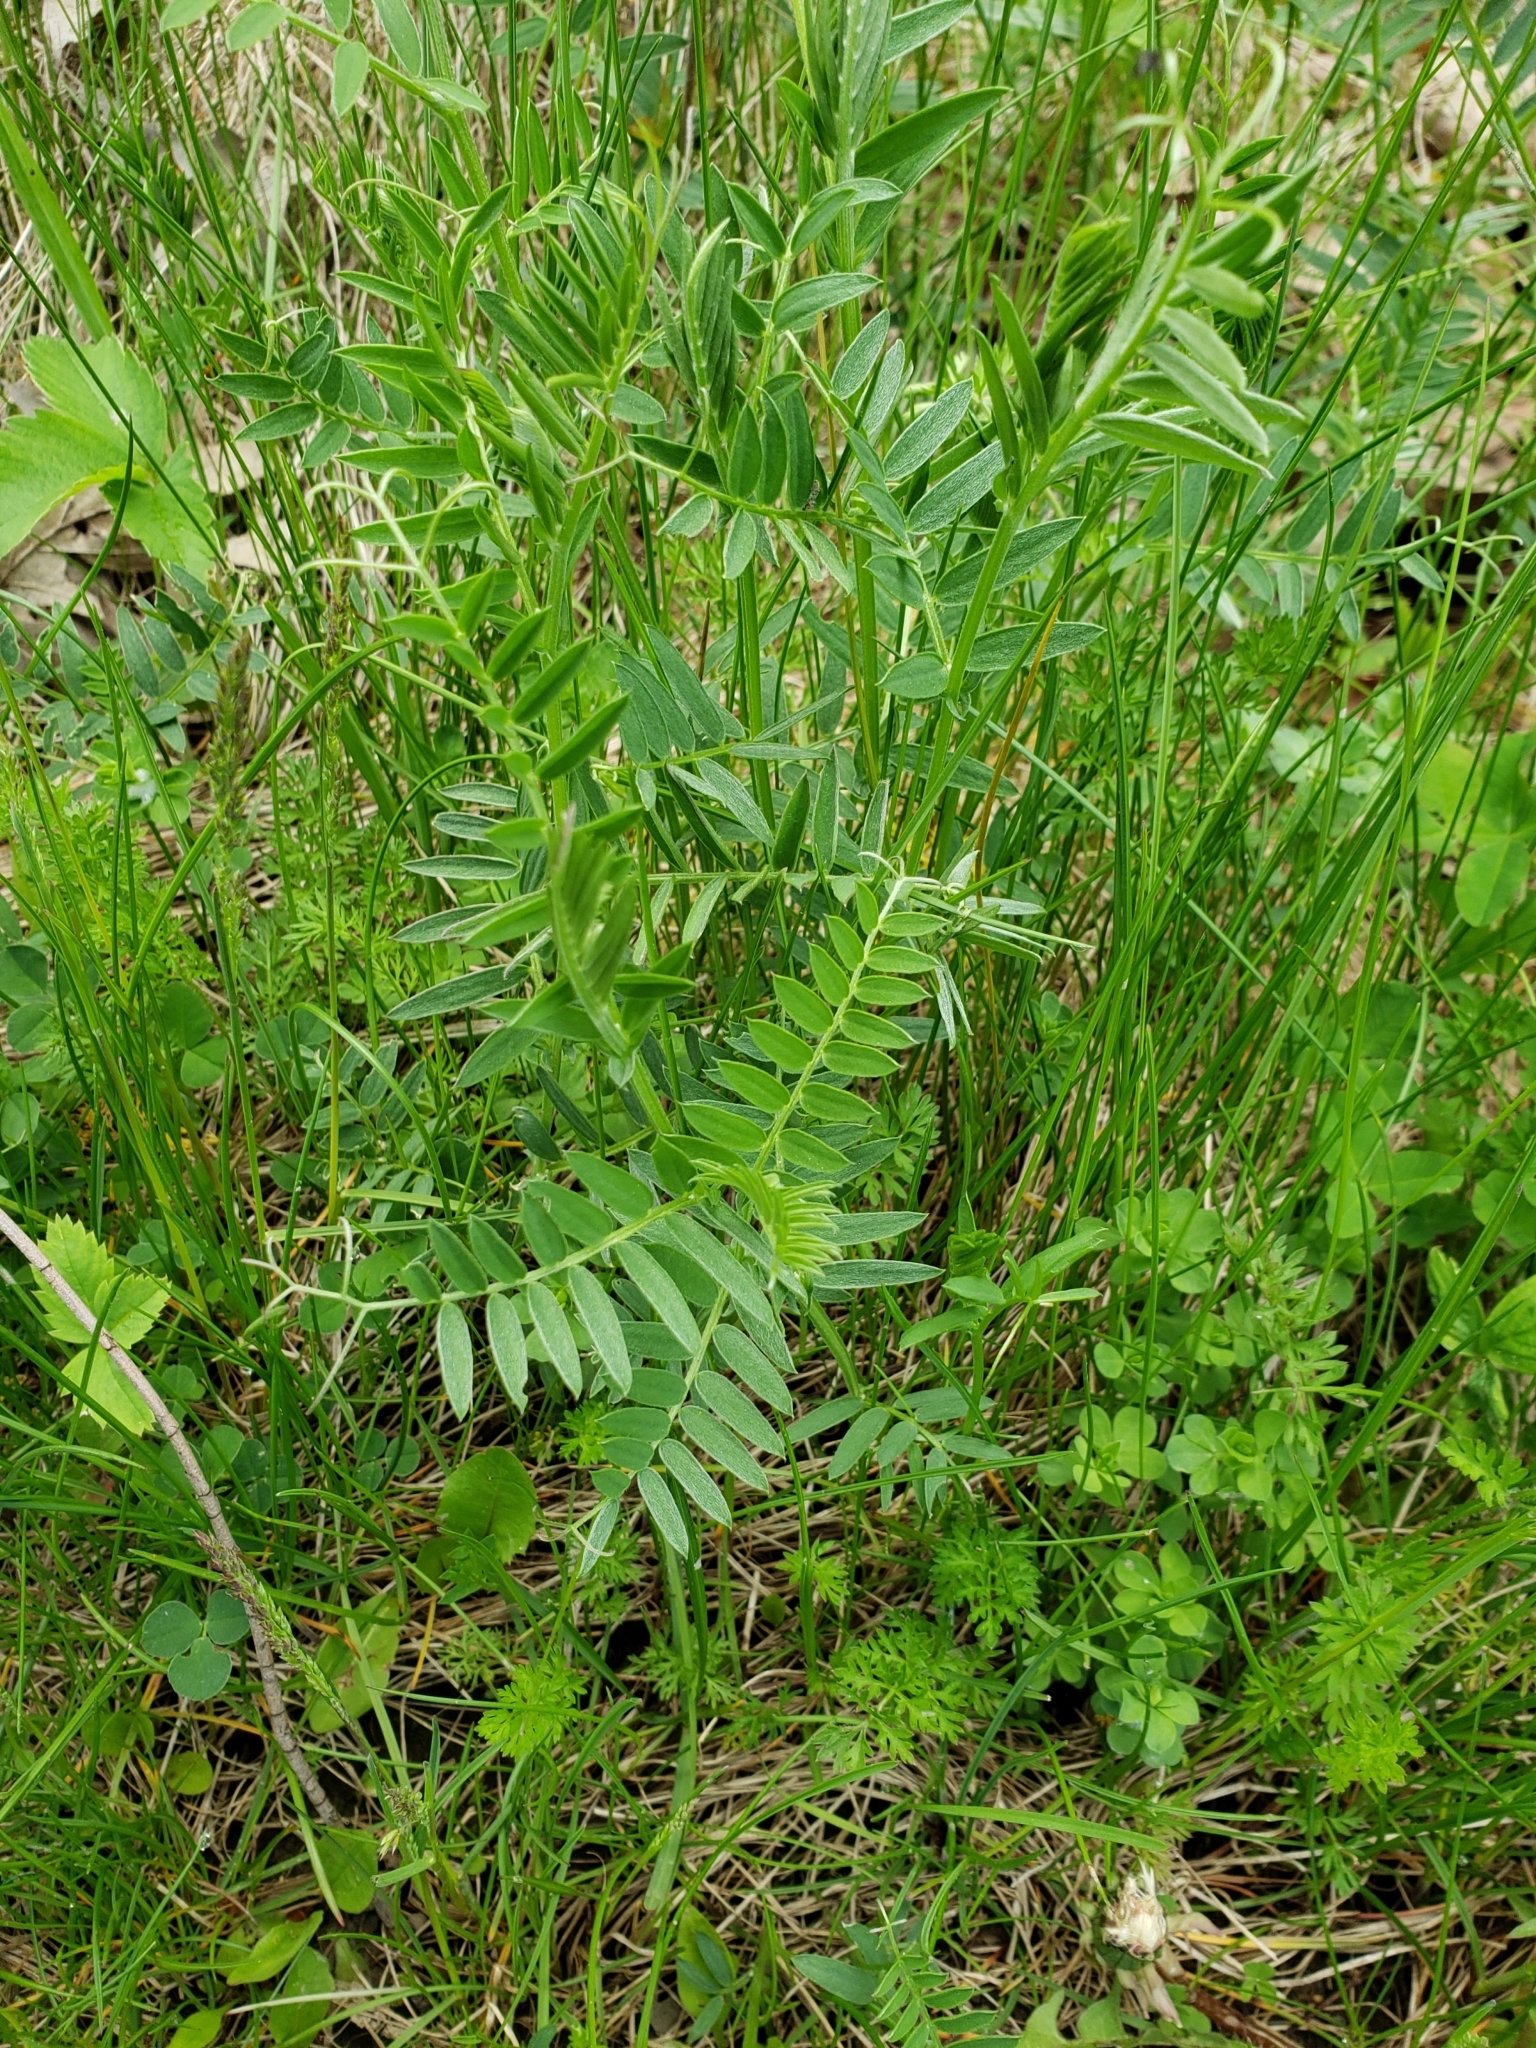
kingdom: Plantae
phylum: Tracheophyta
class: Magnoliopsida
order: Fabales
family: Fabaceae
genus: Vicia
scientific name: Vicia cracca
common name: Bird vetch
